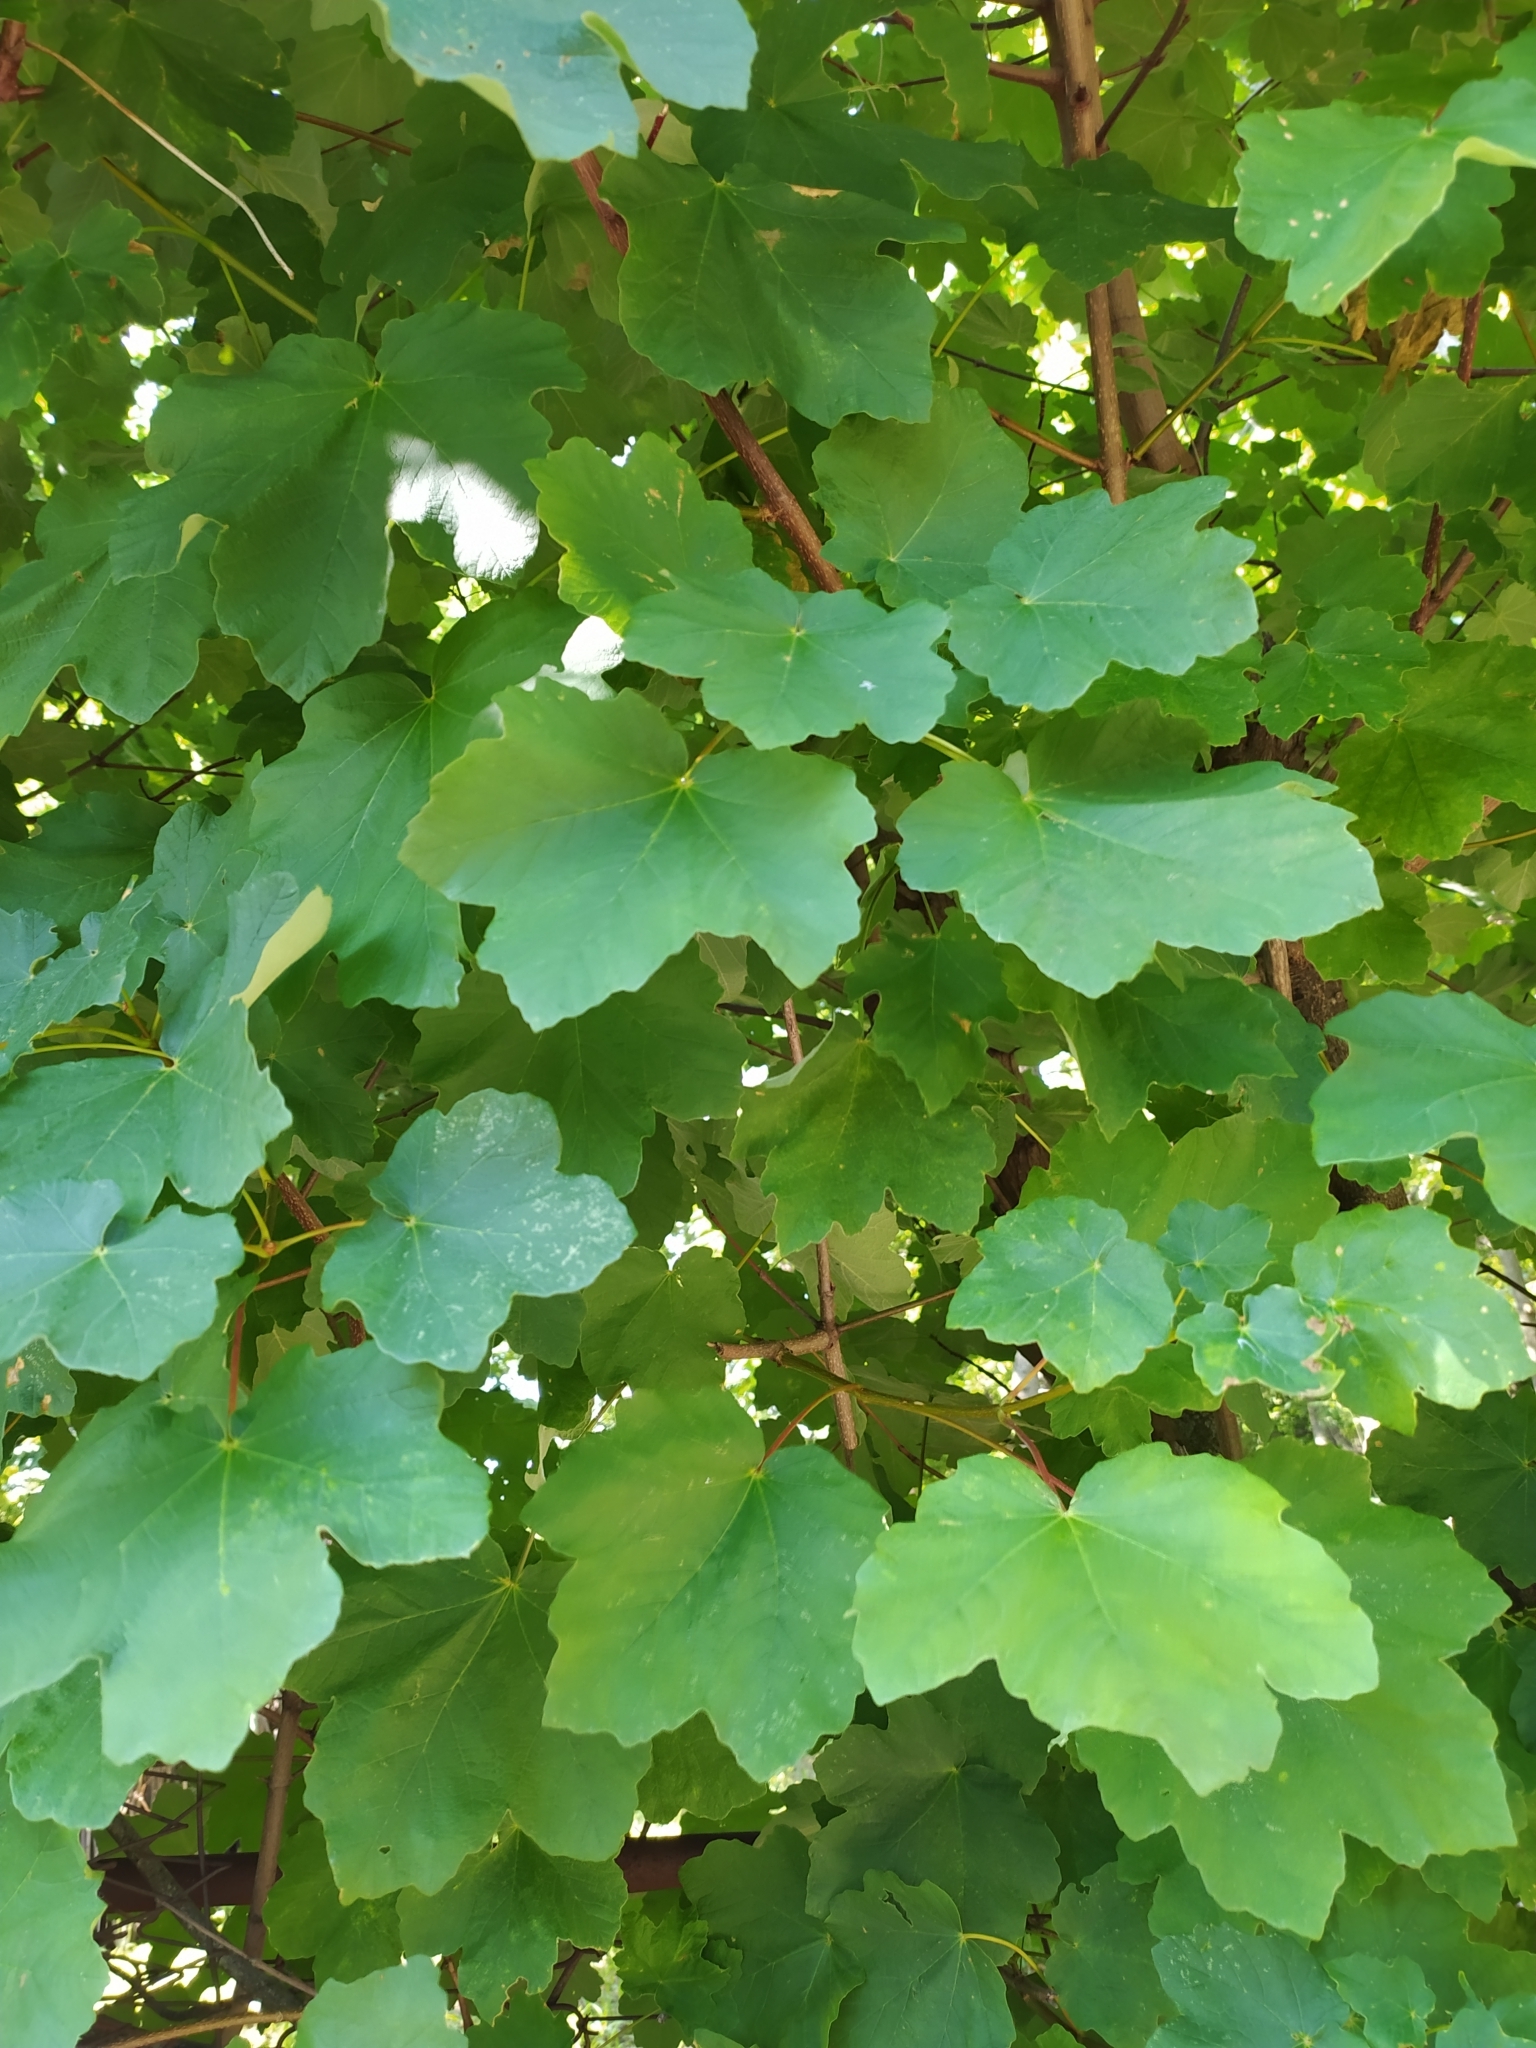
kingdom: Plantae
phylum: Tracheophyta
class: Magnoliopsida
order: Sapindales
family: Sapindaceae
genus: Acer
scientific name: Acer opalus
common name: Italian maple
